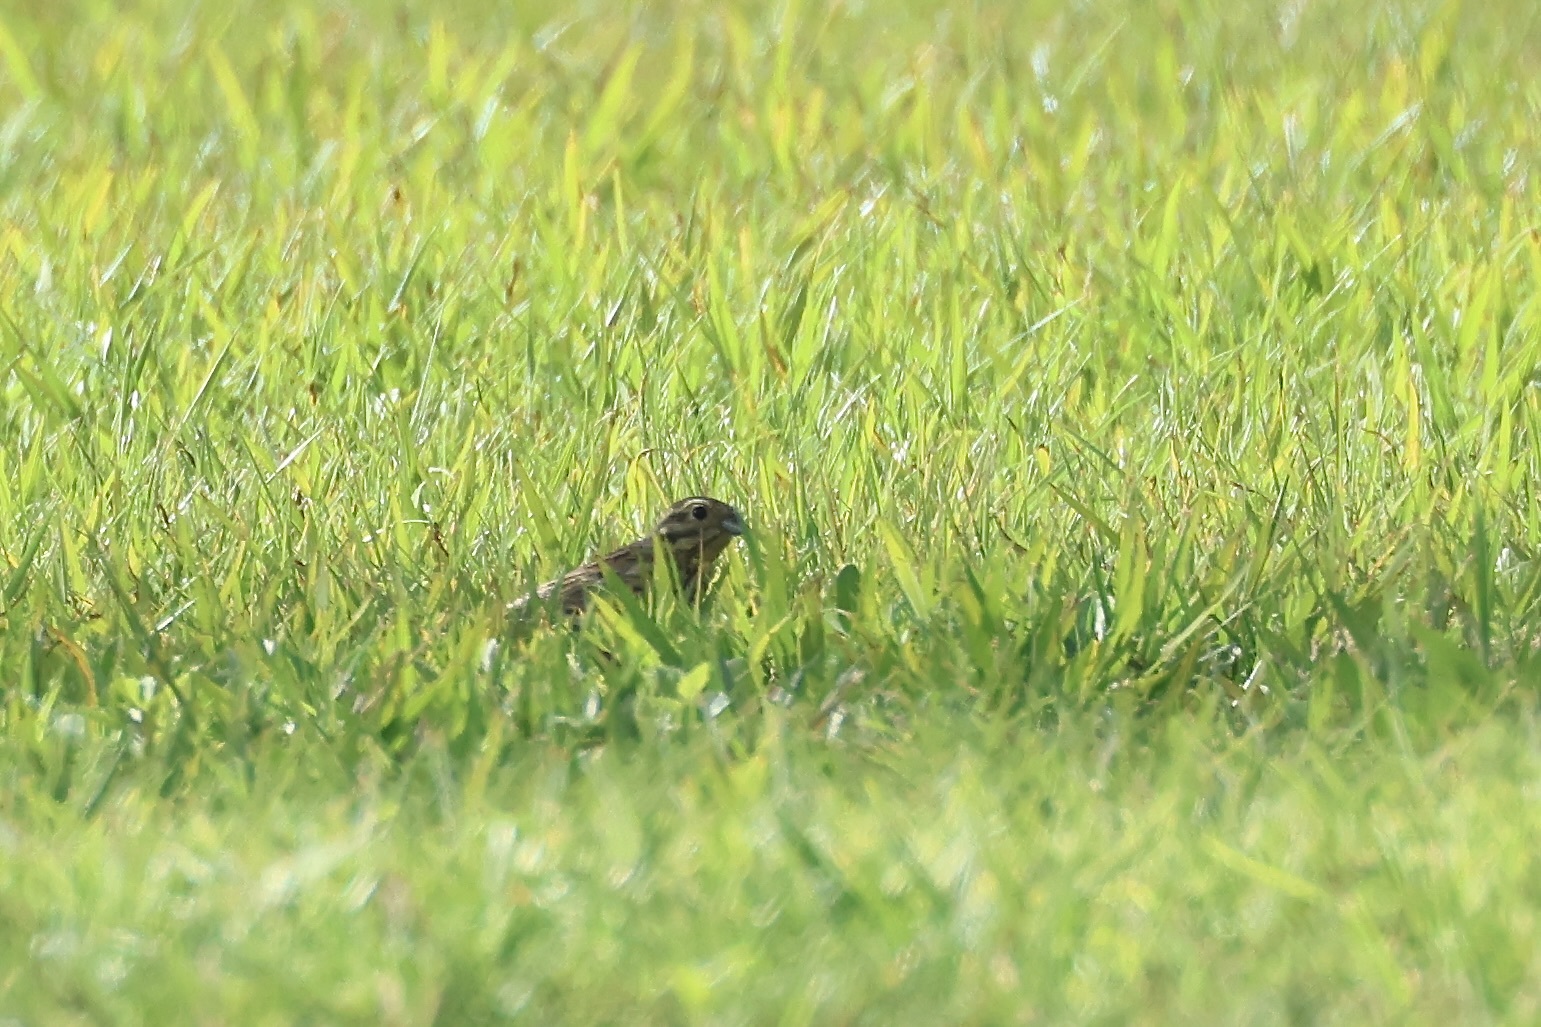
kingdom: Animalia
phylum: Chordata
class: Aves
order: Passeriformes
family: Emberizidae
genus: Emberiza
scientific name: Emberiza cirlus
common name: Cirl bunting
